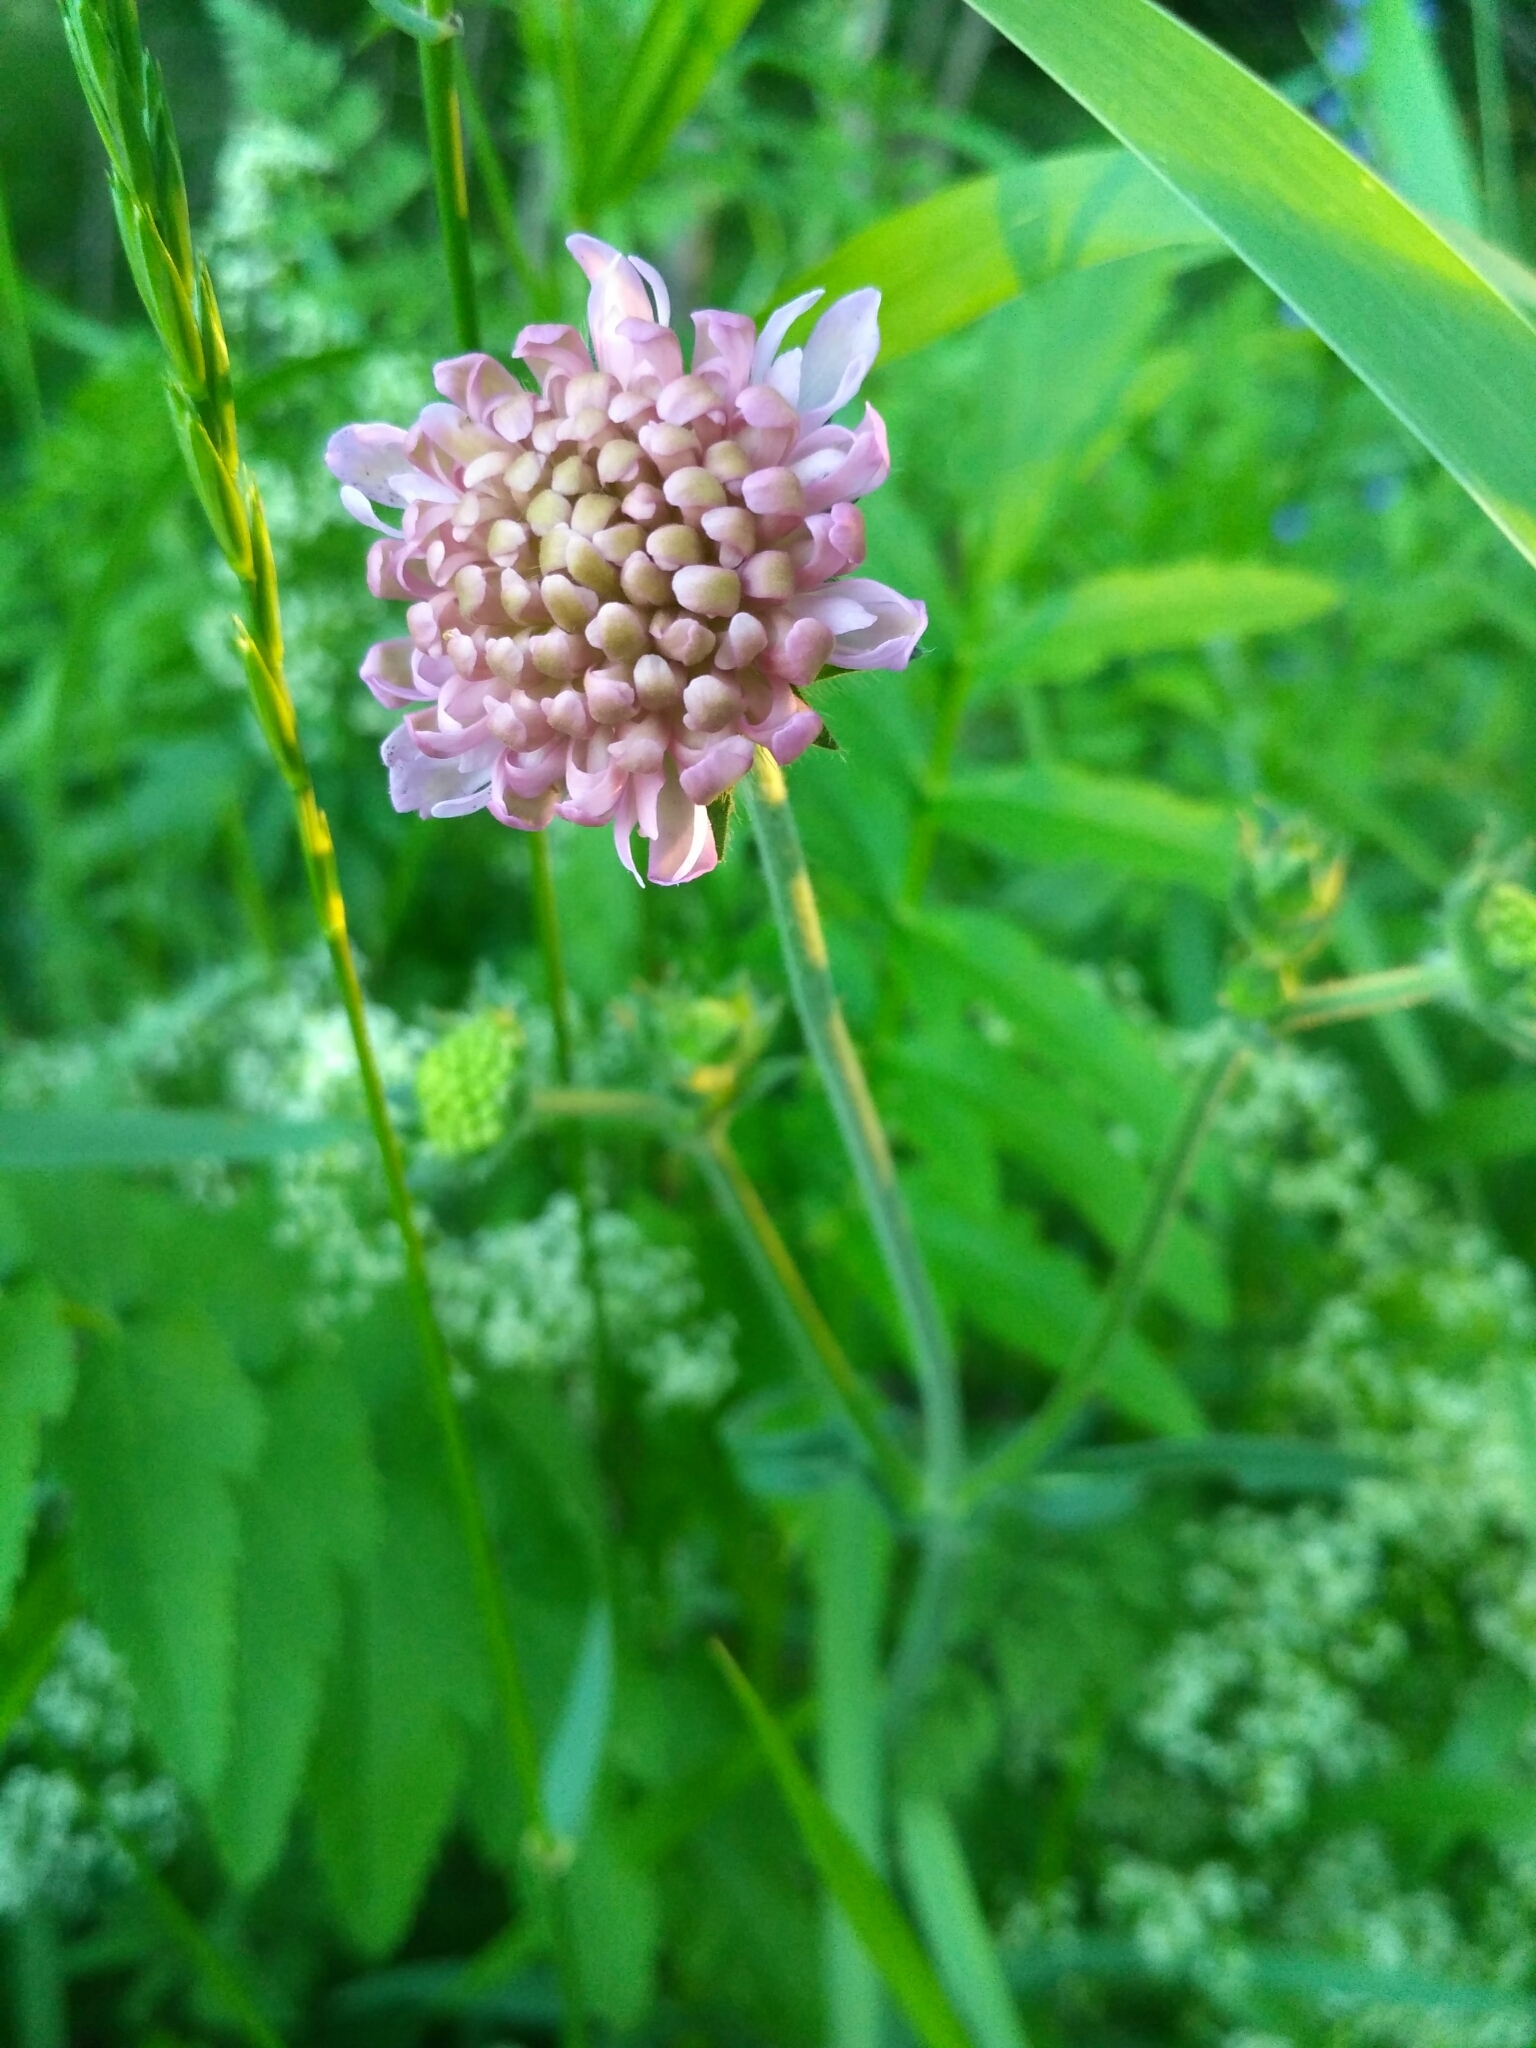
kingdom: Plantae
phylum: Tracheophyta
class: Magnoliopsida
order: Dipsacales
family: Caprifoliaceae
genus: Knautia
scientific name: Knautia arvensis
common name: Field scabiosa
